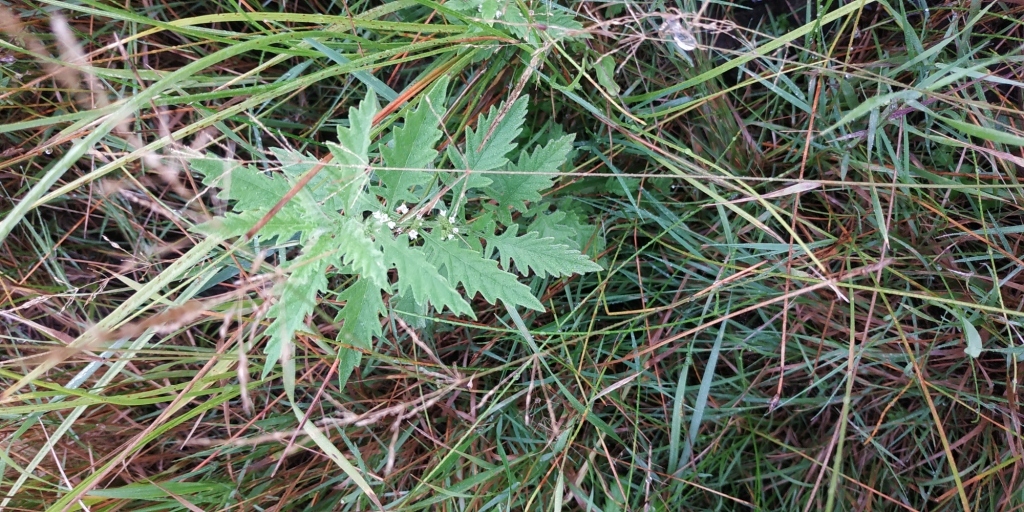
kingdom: Plantae
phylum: Tracheophyta
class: Magnoliopsida
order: Lamiales
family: Lamiaceae
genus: Lycopus
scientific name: Lycopus europaeus
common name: European bugleweed
